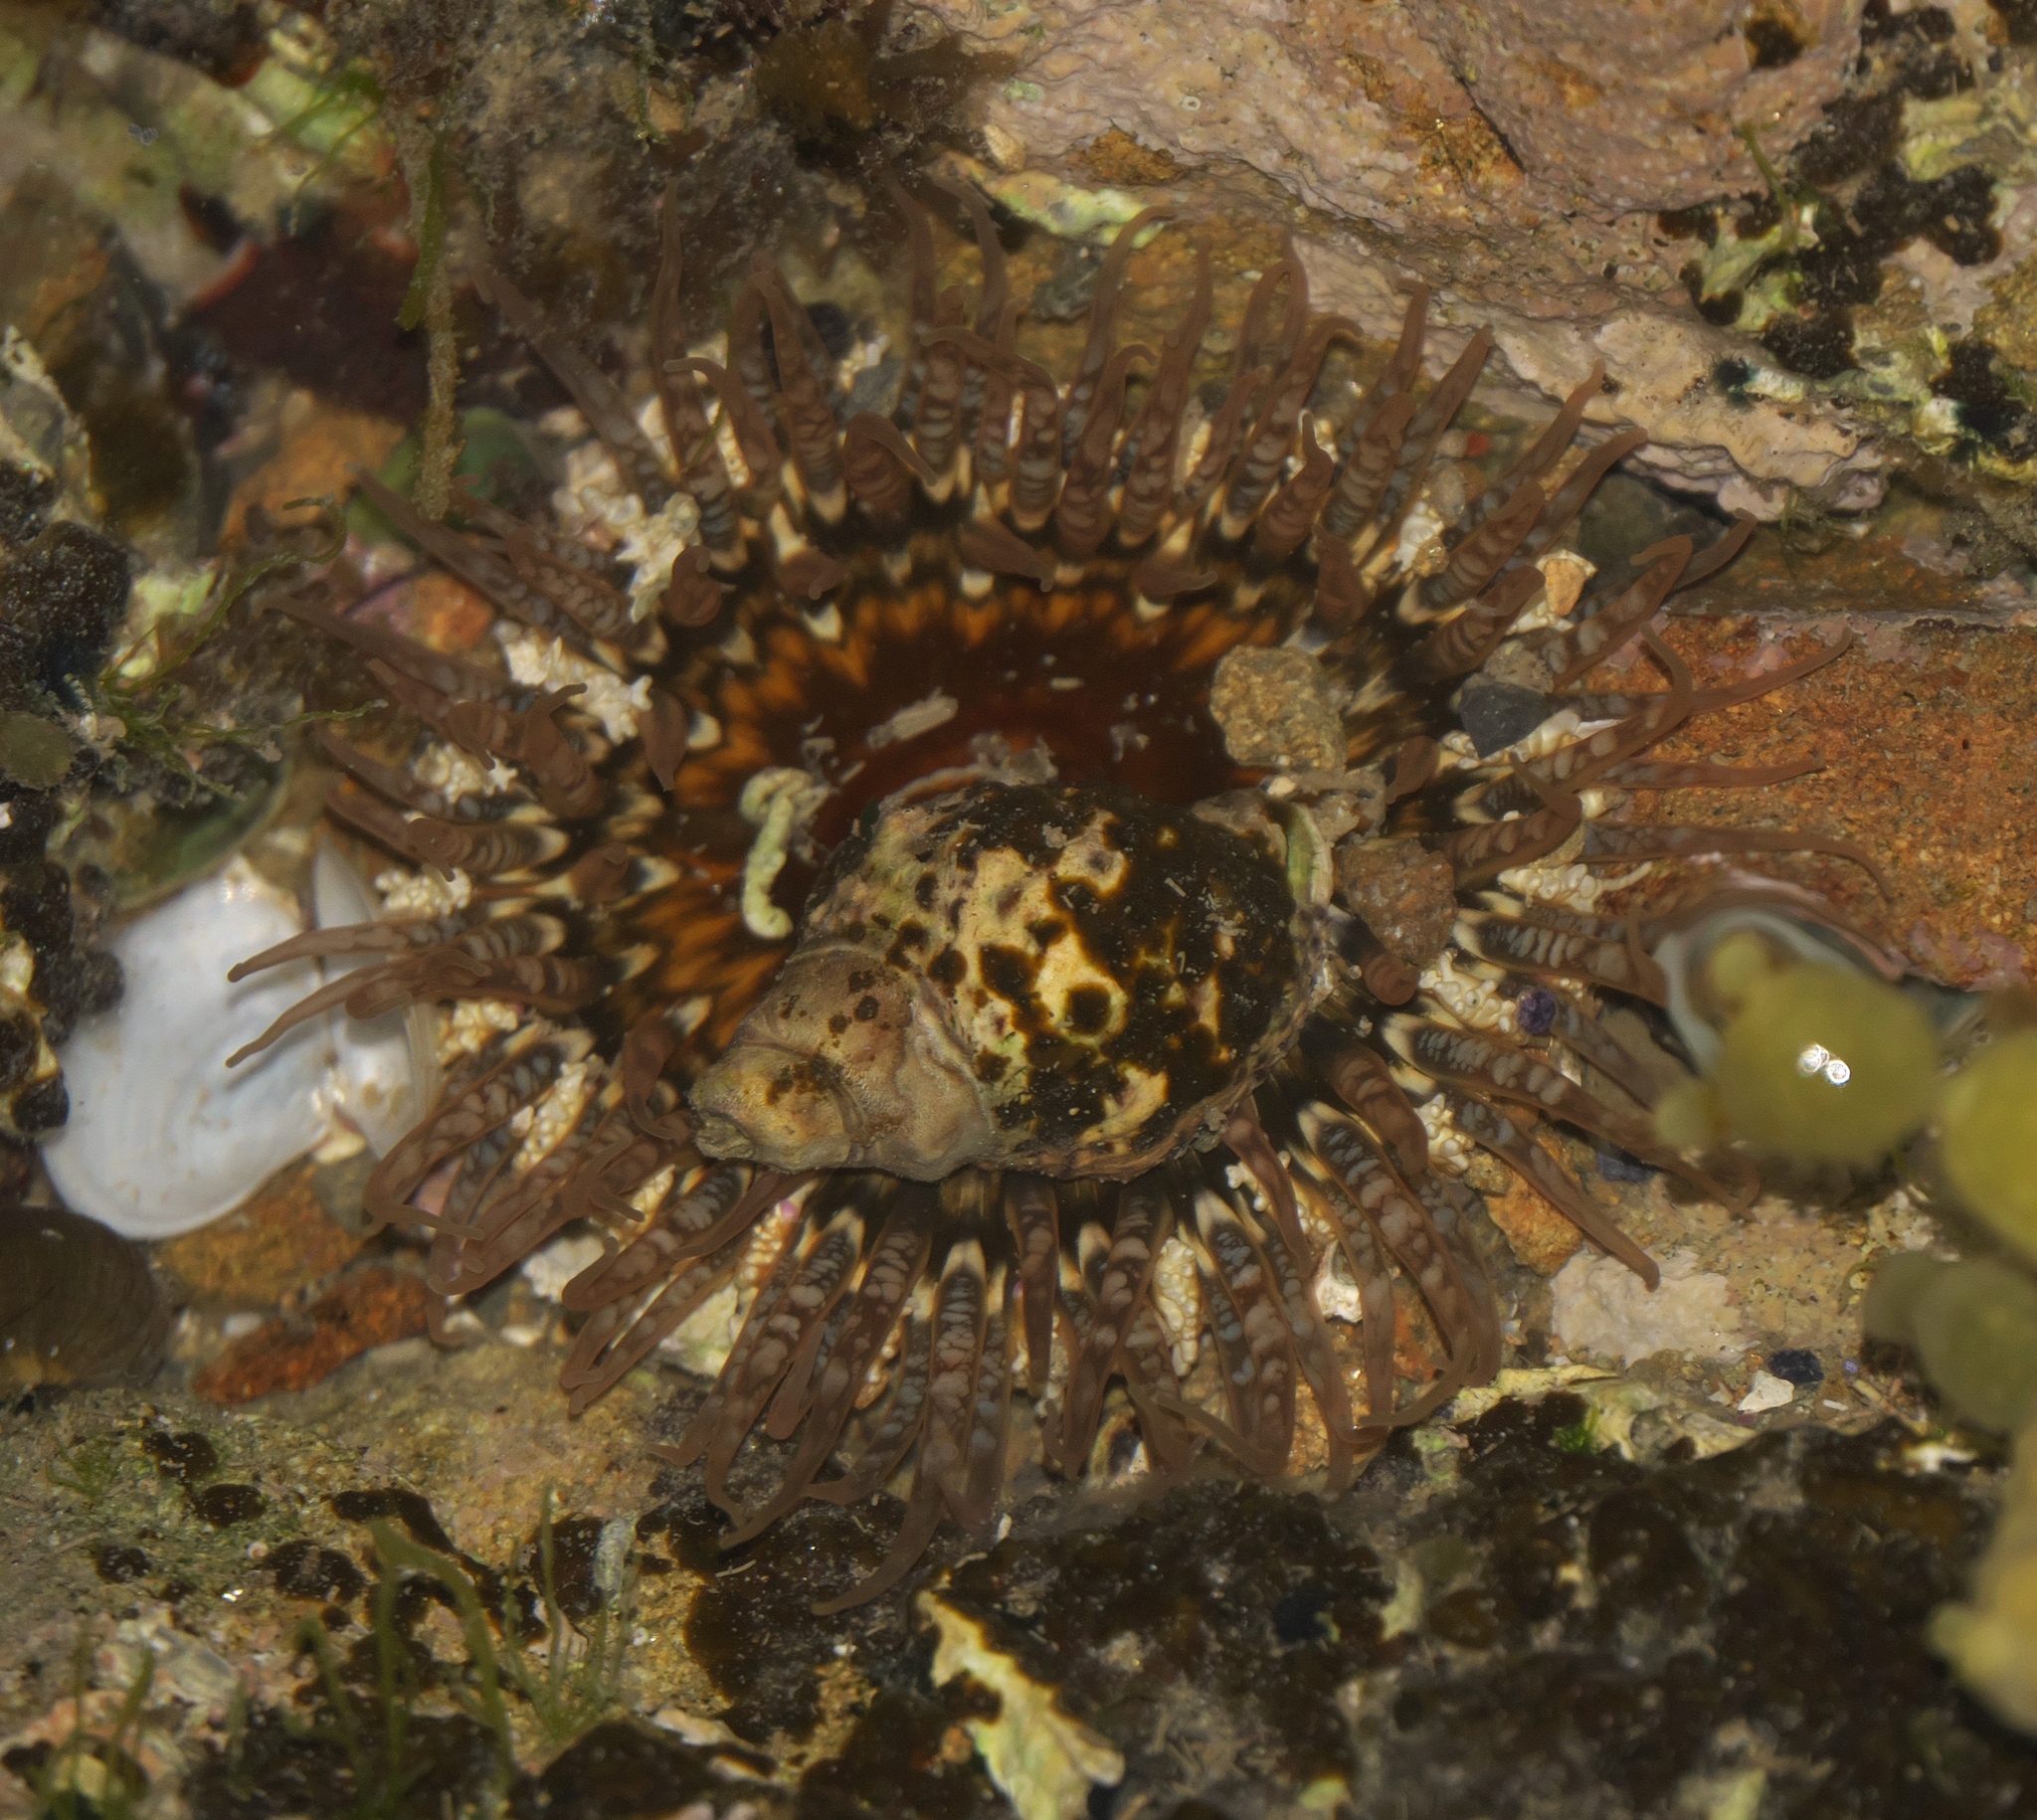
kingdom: Animalia
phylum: Cnidaria
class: Anthozoa
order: Actiniaria
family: Actiniidae
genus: Oulactis
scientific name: Oulactis muscosa
